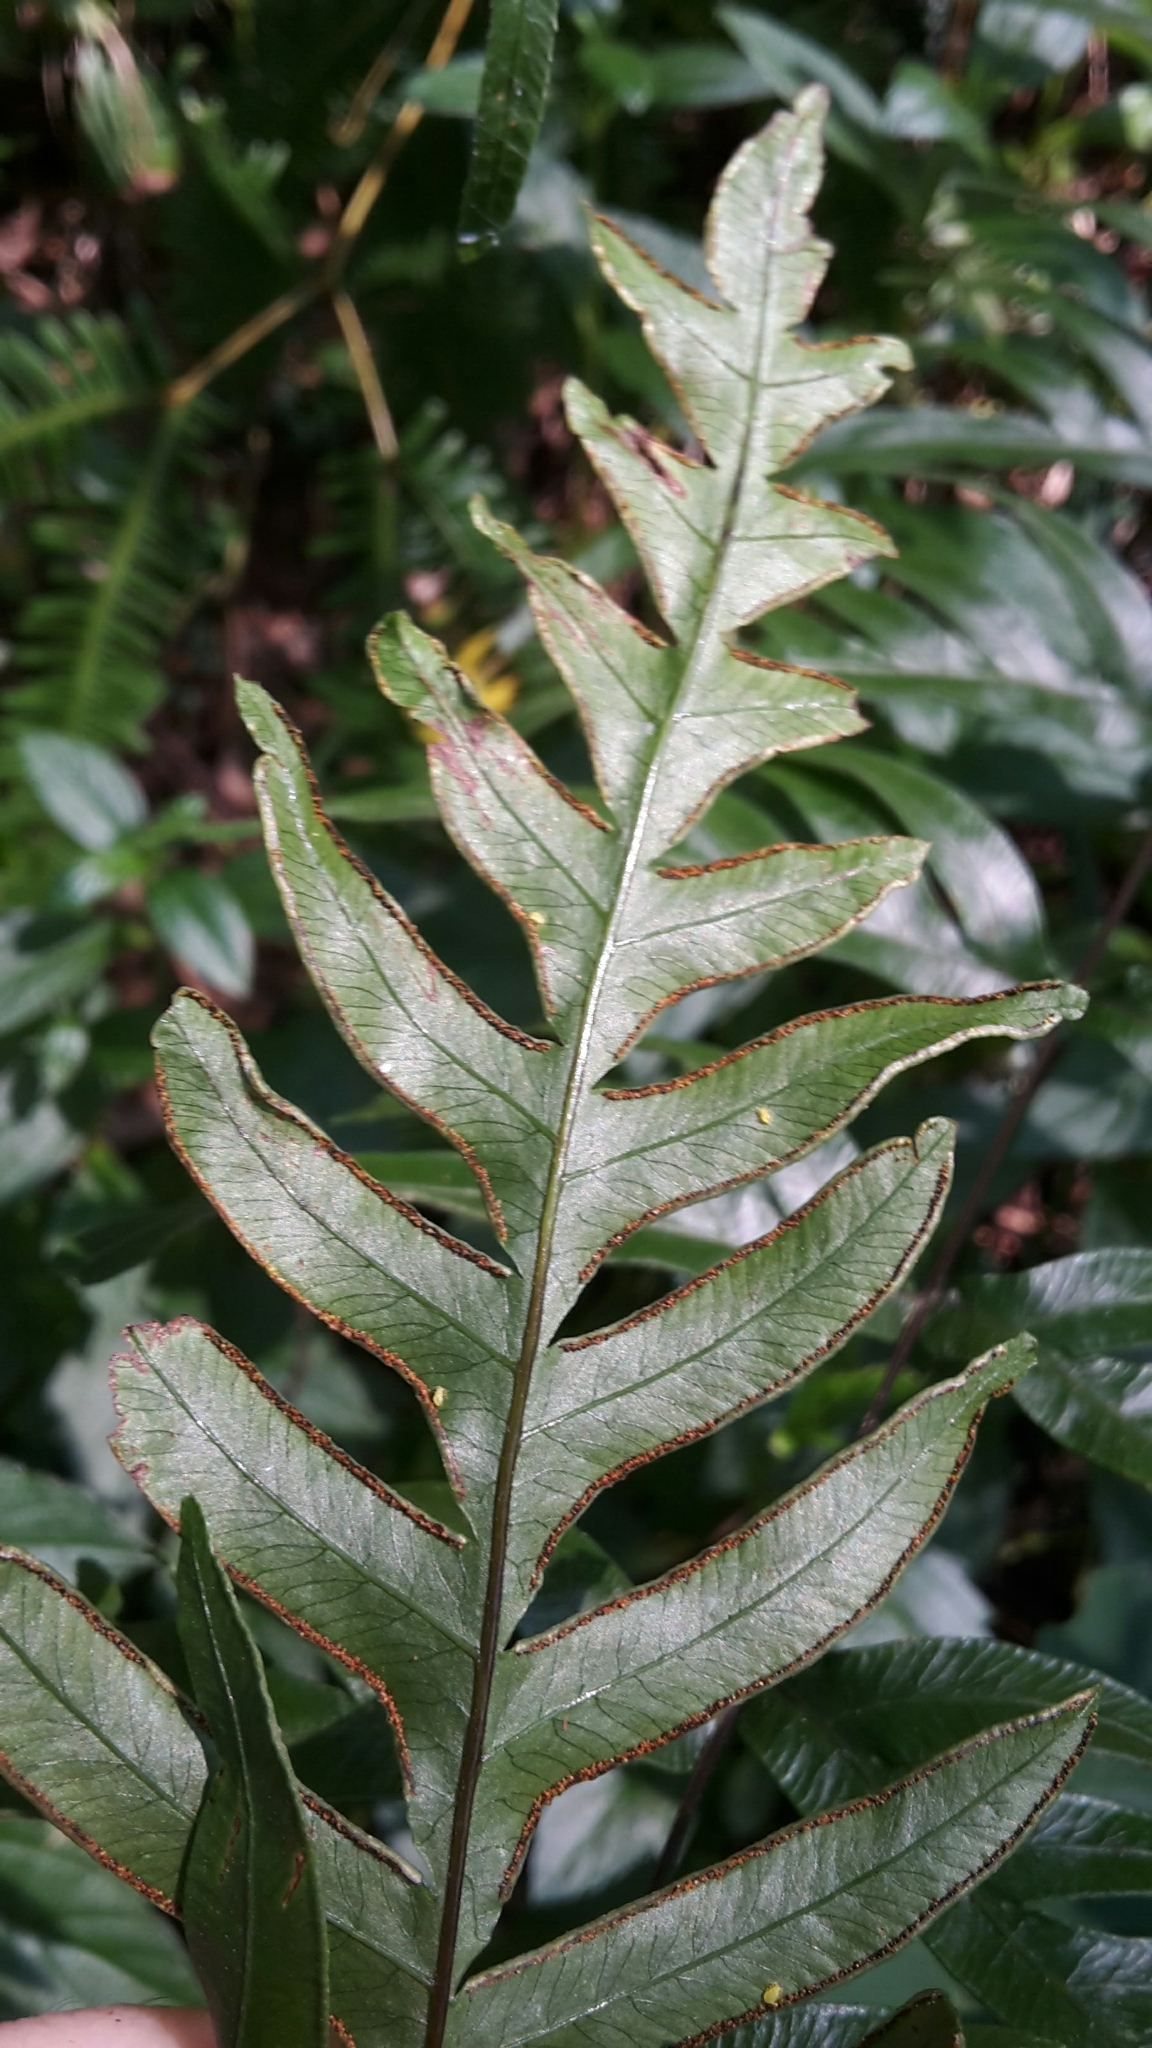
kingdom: Plantae
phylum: Tracheophyta
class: Polypodiopsida
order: Polypodiales
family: Pteridaceae
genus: Pteris
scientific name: Pteris semipinnata
